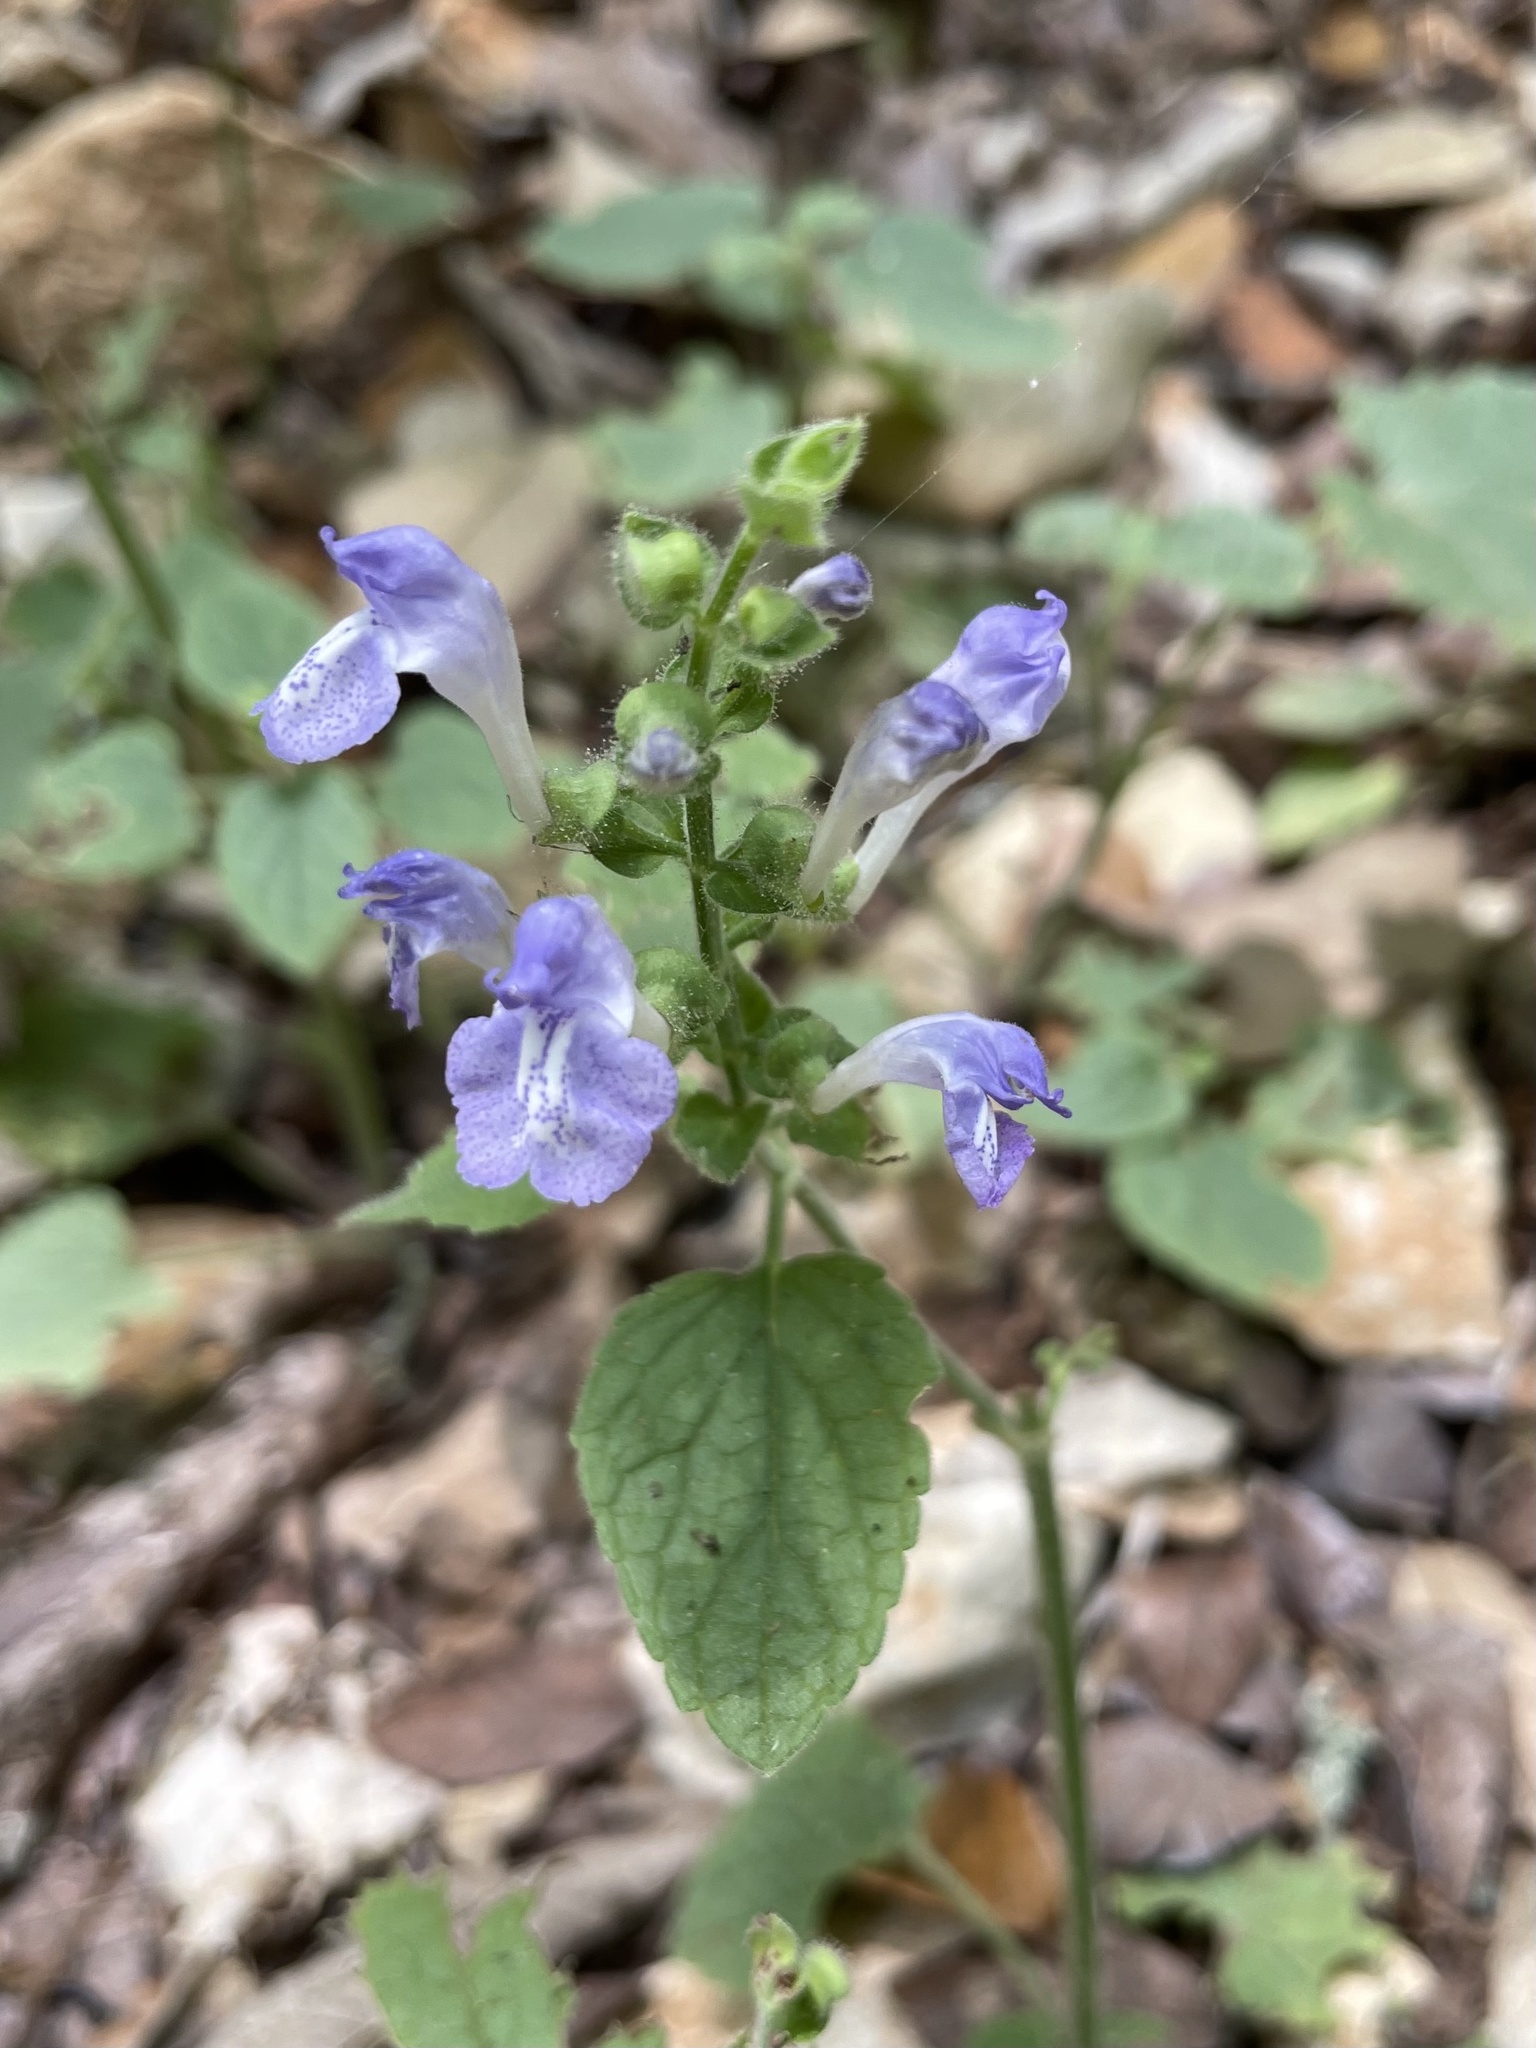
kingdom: Plantae
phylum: Tracheophyta
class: Magnoliopsida
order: Lamiales
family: Lamiaceae
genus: Scutellaria
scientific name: Scutellaria ovata
